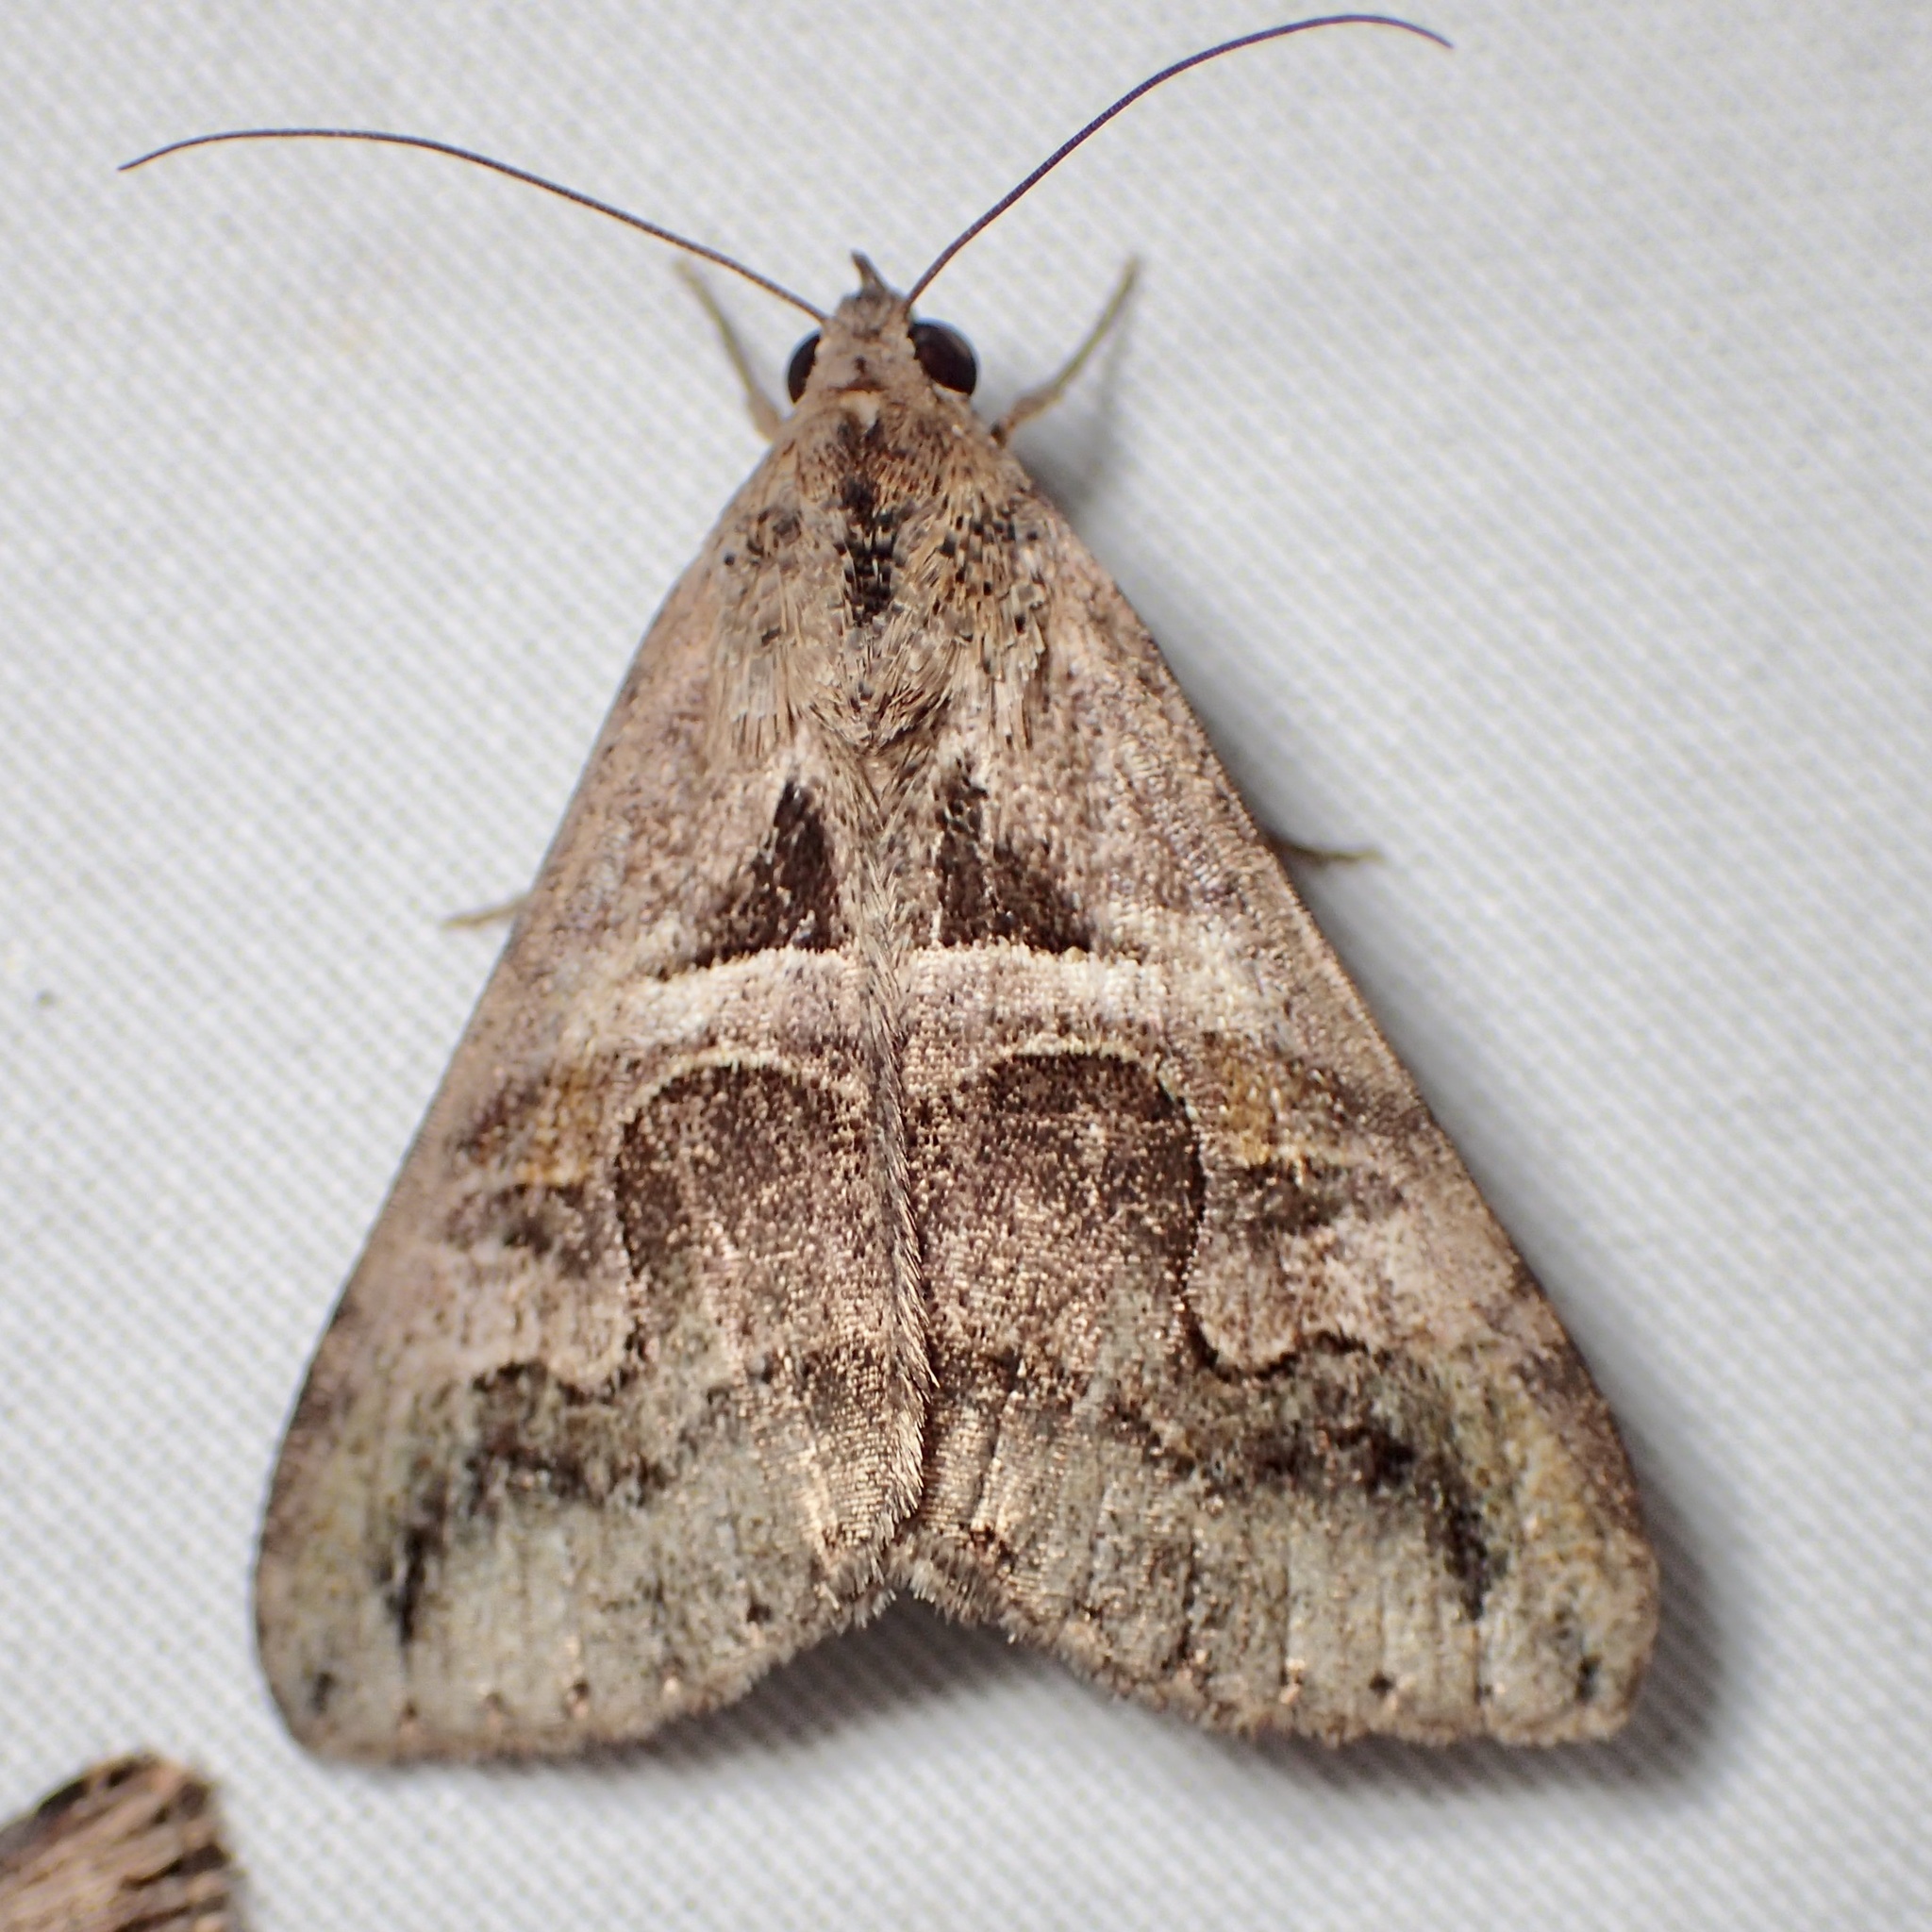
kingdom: Animalia
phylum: Arthropoda
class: Insecta
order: Lepidoptera
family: Erebidae
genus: Melipotis
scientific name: Melipotis cellaris
